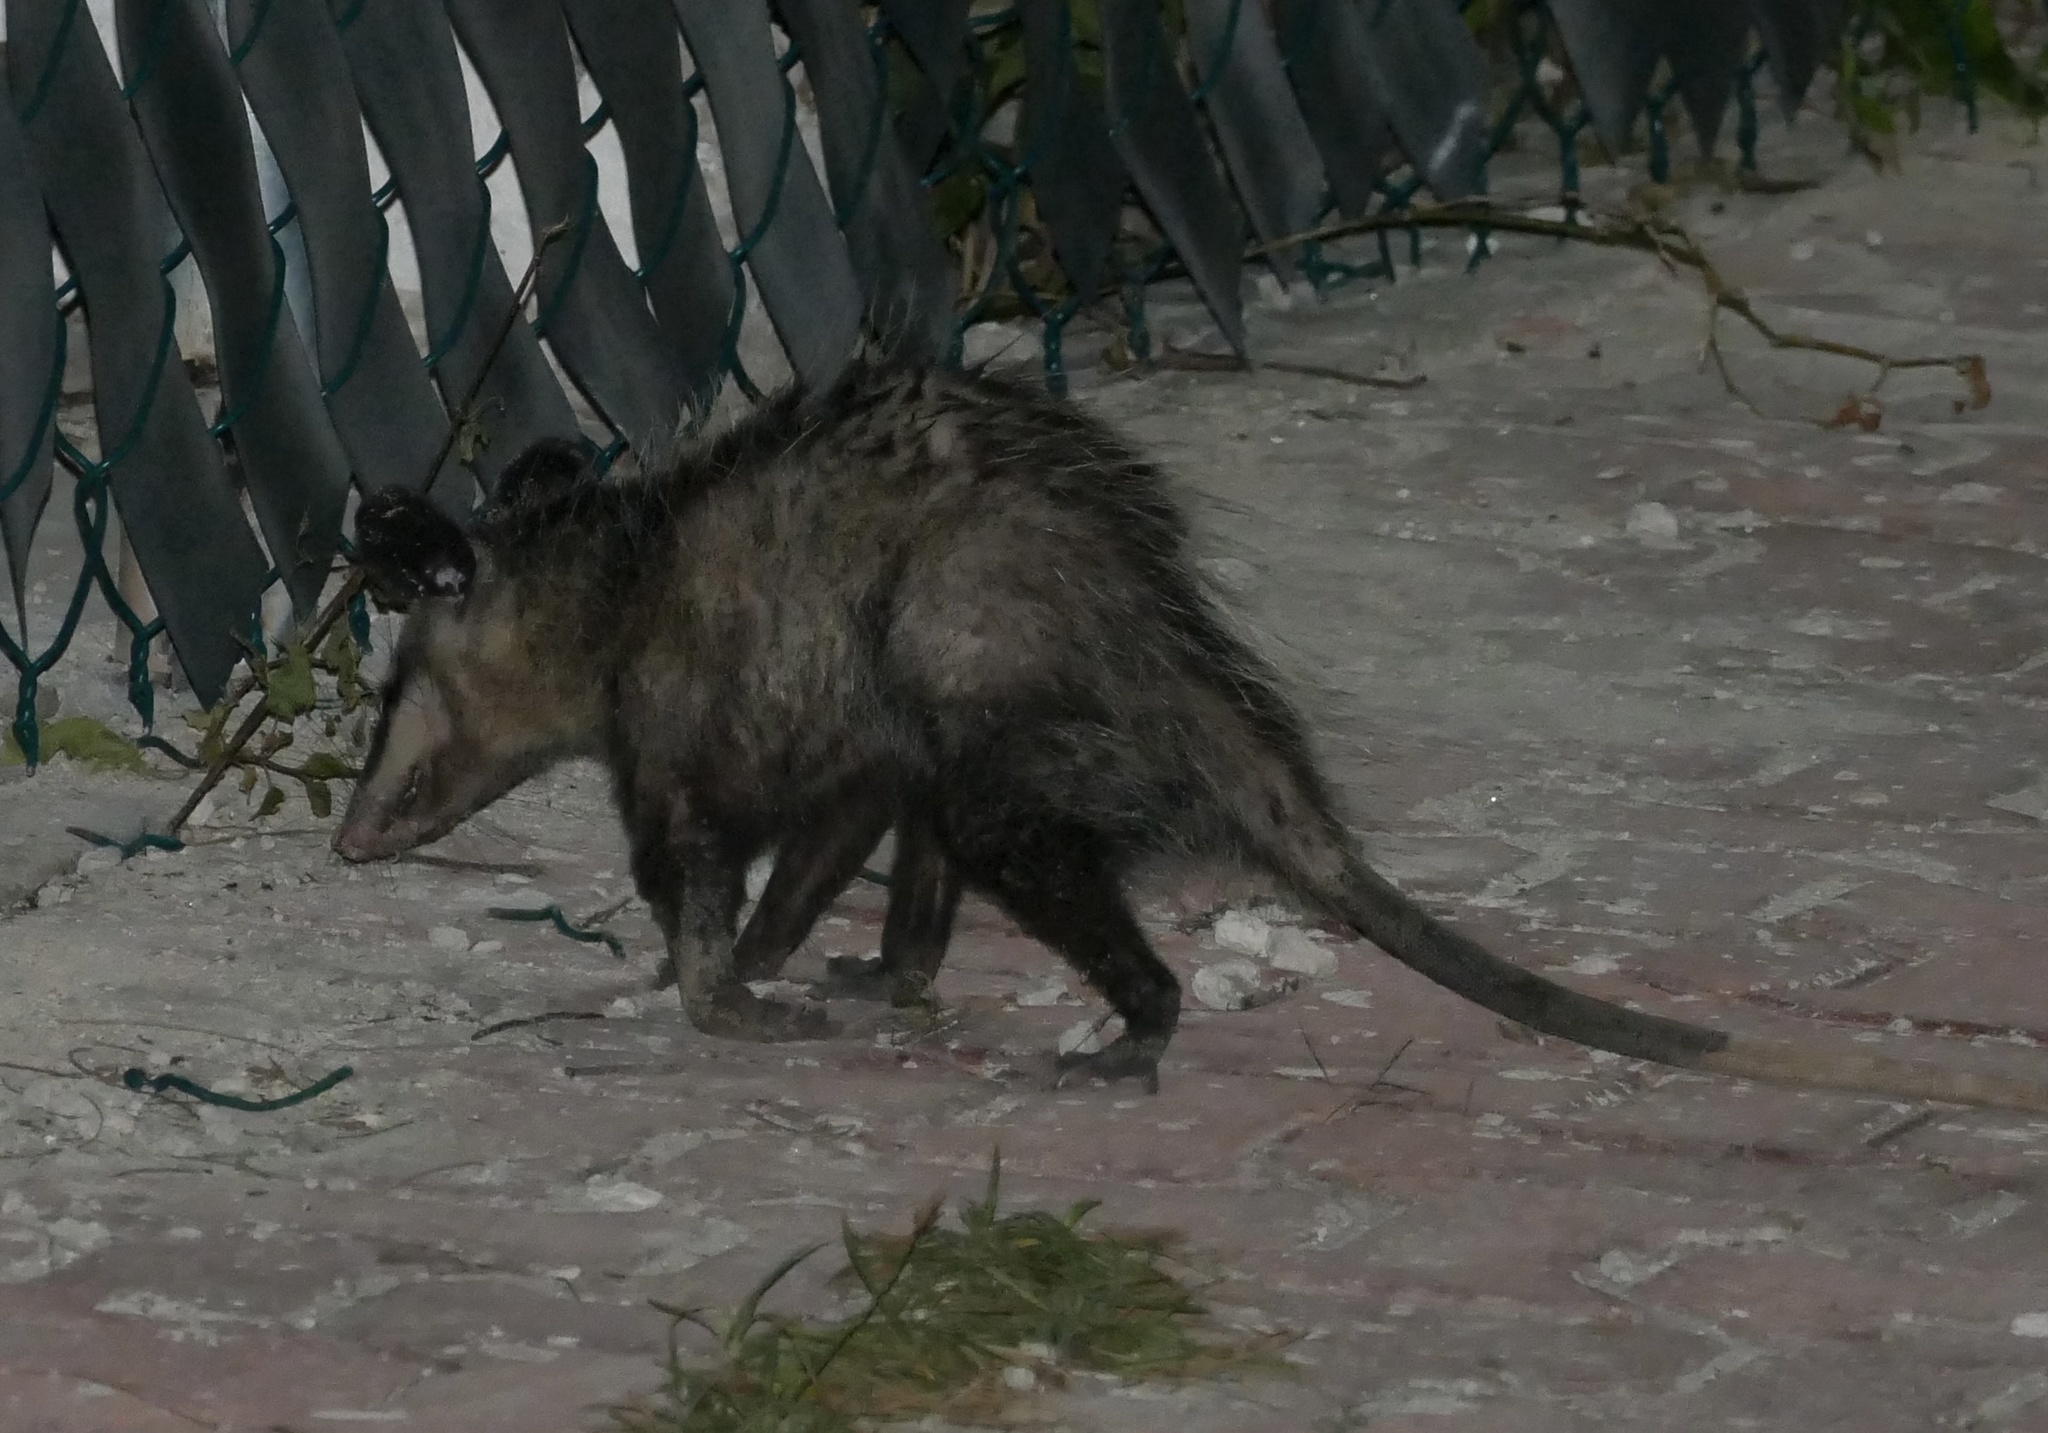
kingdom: Animalia
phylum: Chordata
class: Mammalia
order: Didelphimorphia
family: Didelphidae
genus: Didelphis
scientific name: Didelphis
